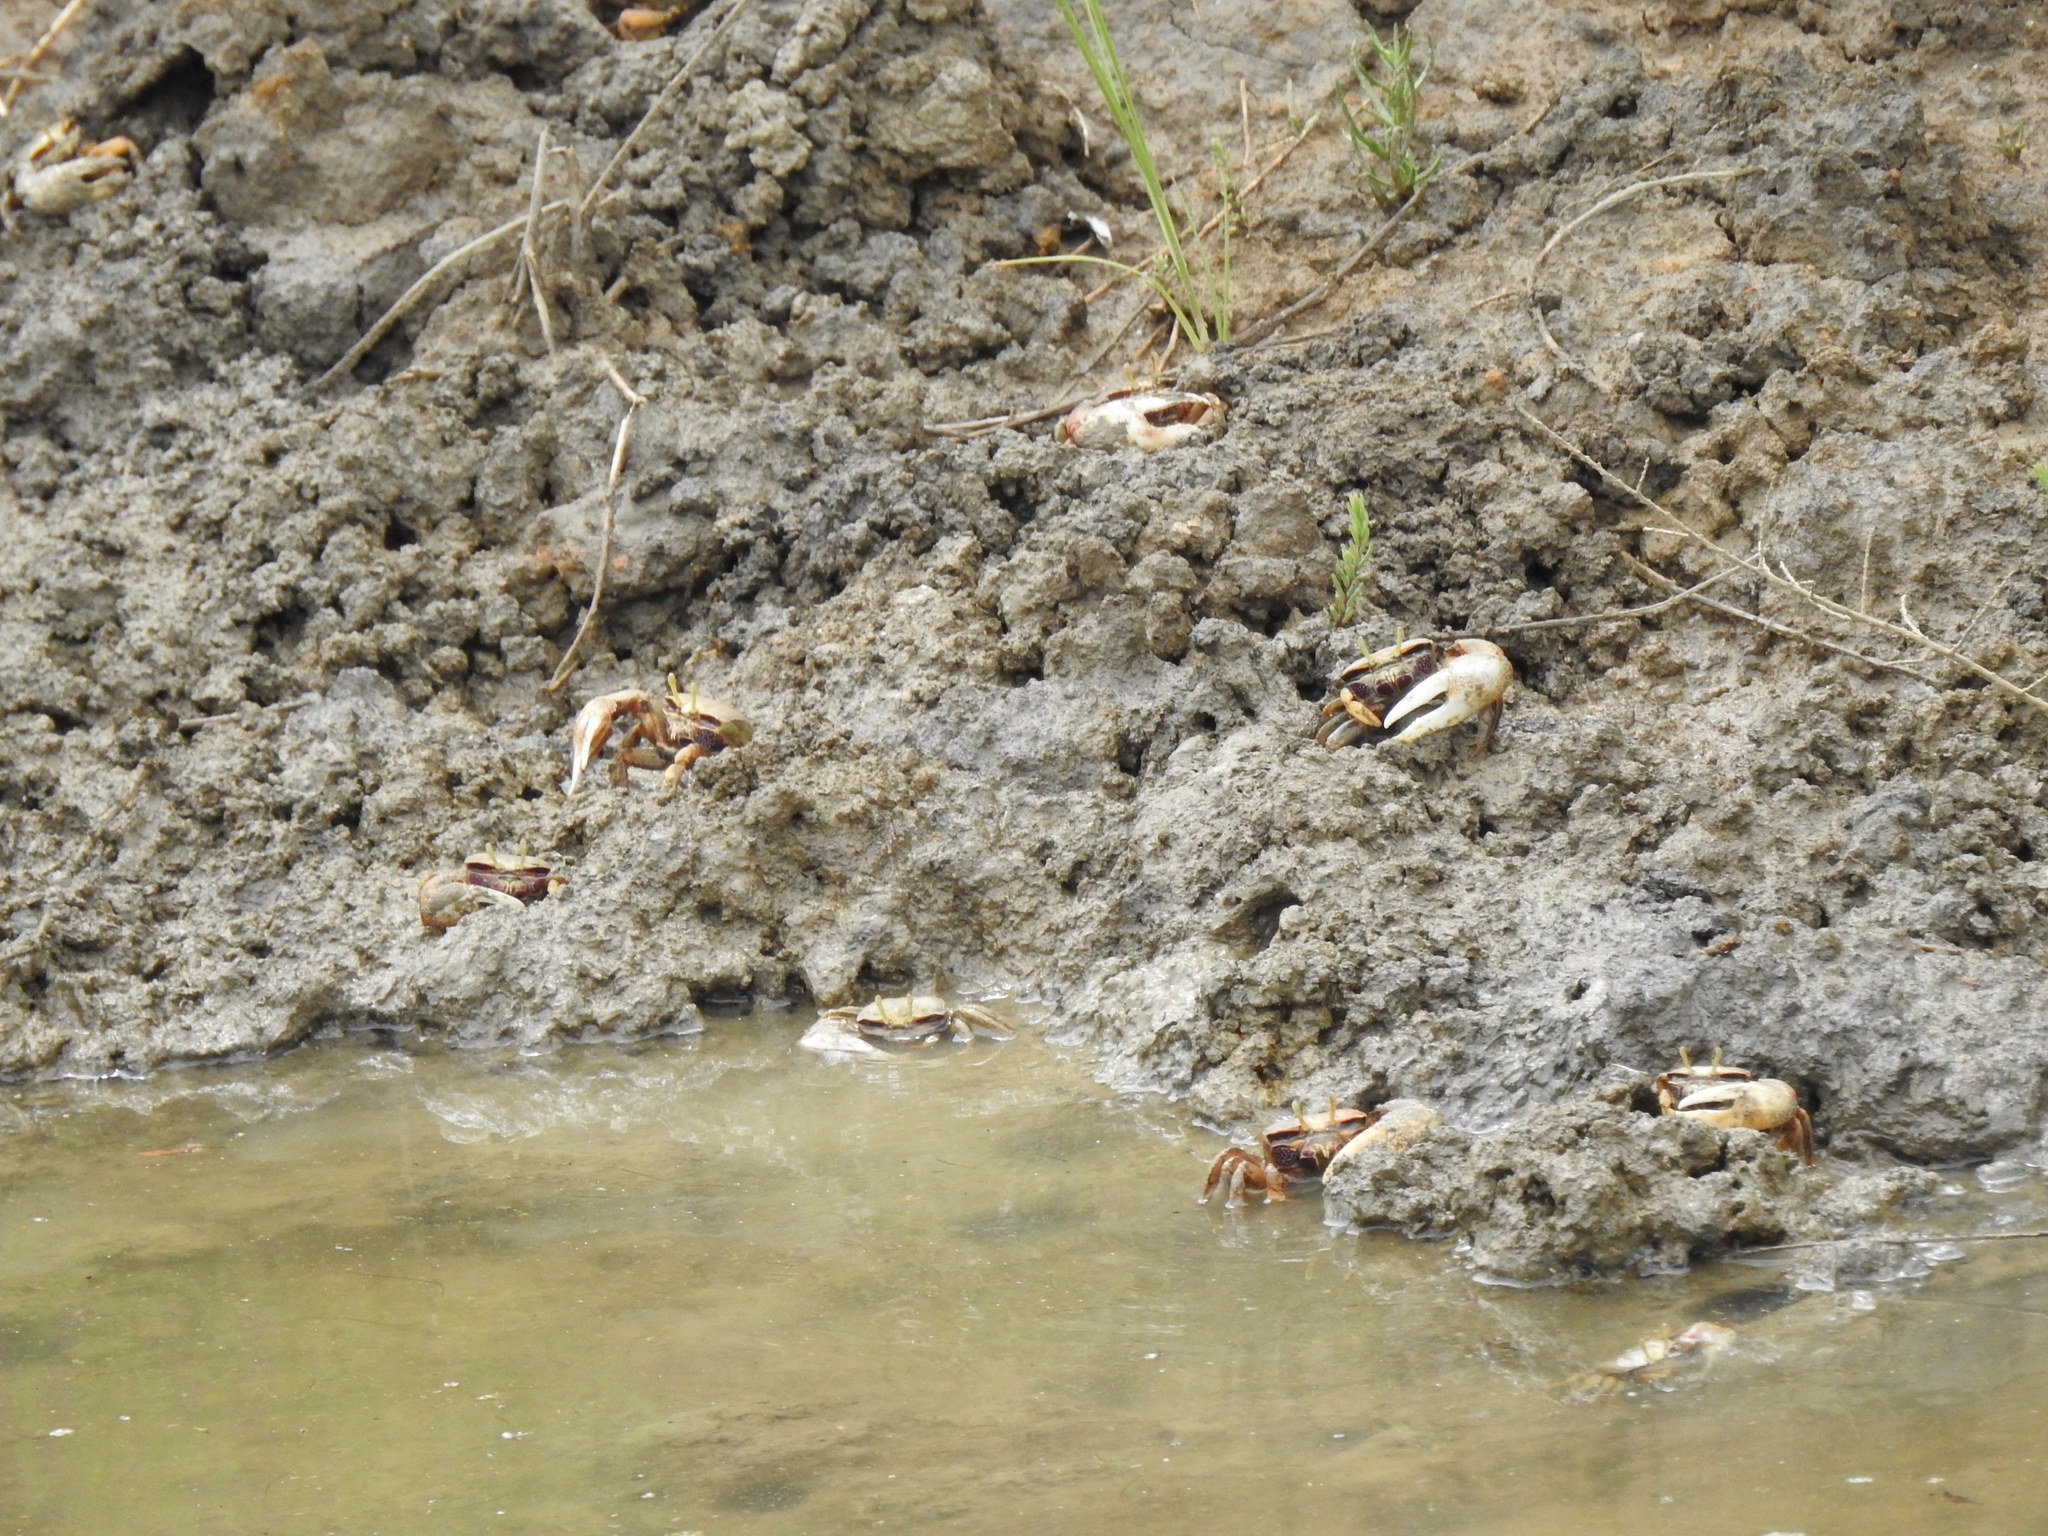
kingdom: Animalia
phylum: Arthropoda
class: Malacostraca
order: Decapoda
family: Ocypodidae
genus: Afruca
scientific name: Afruca tangeri
